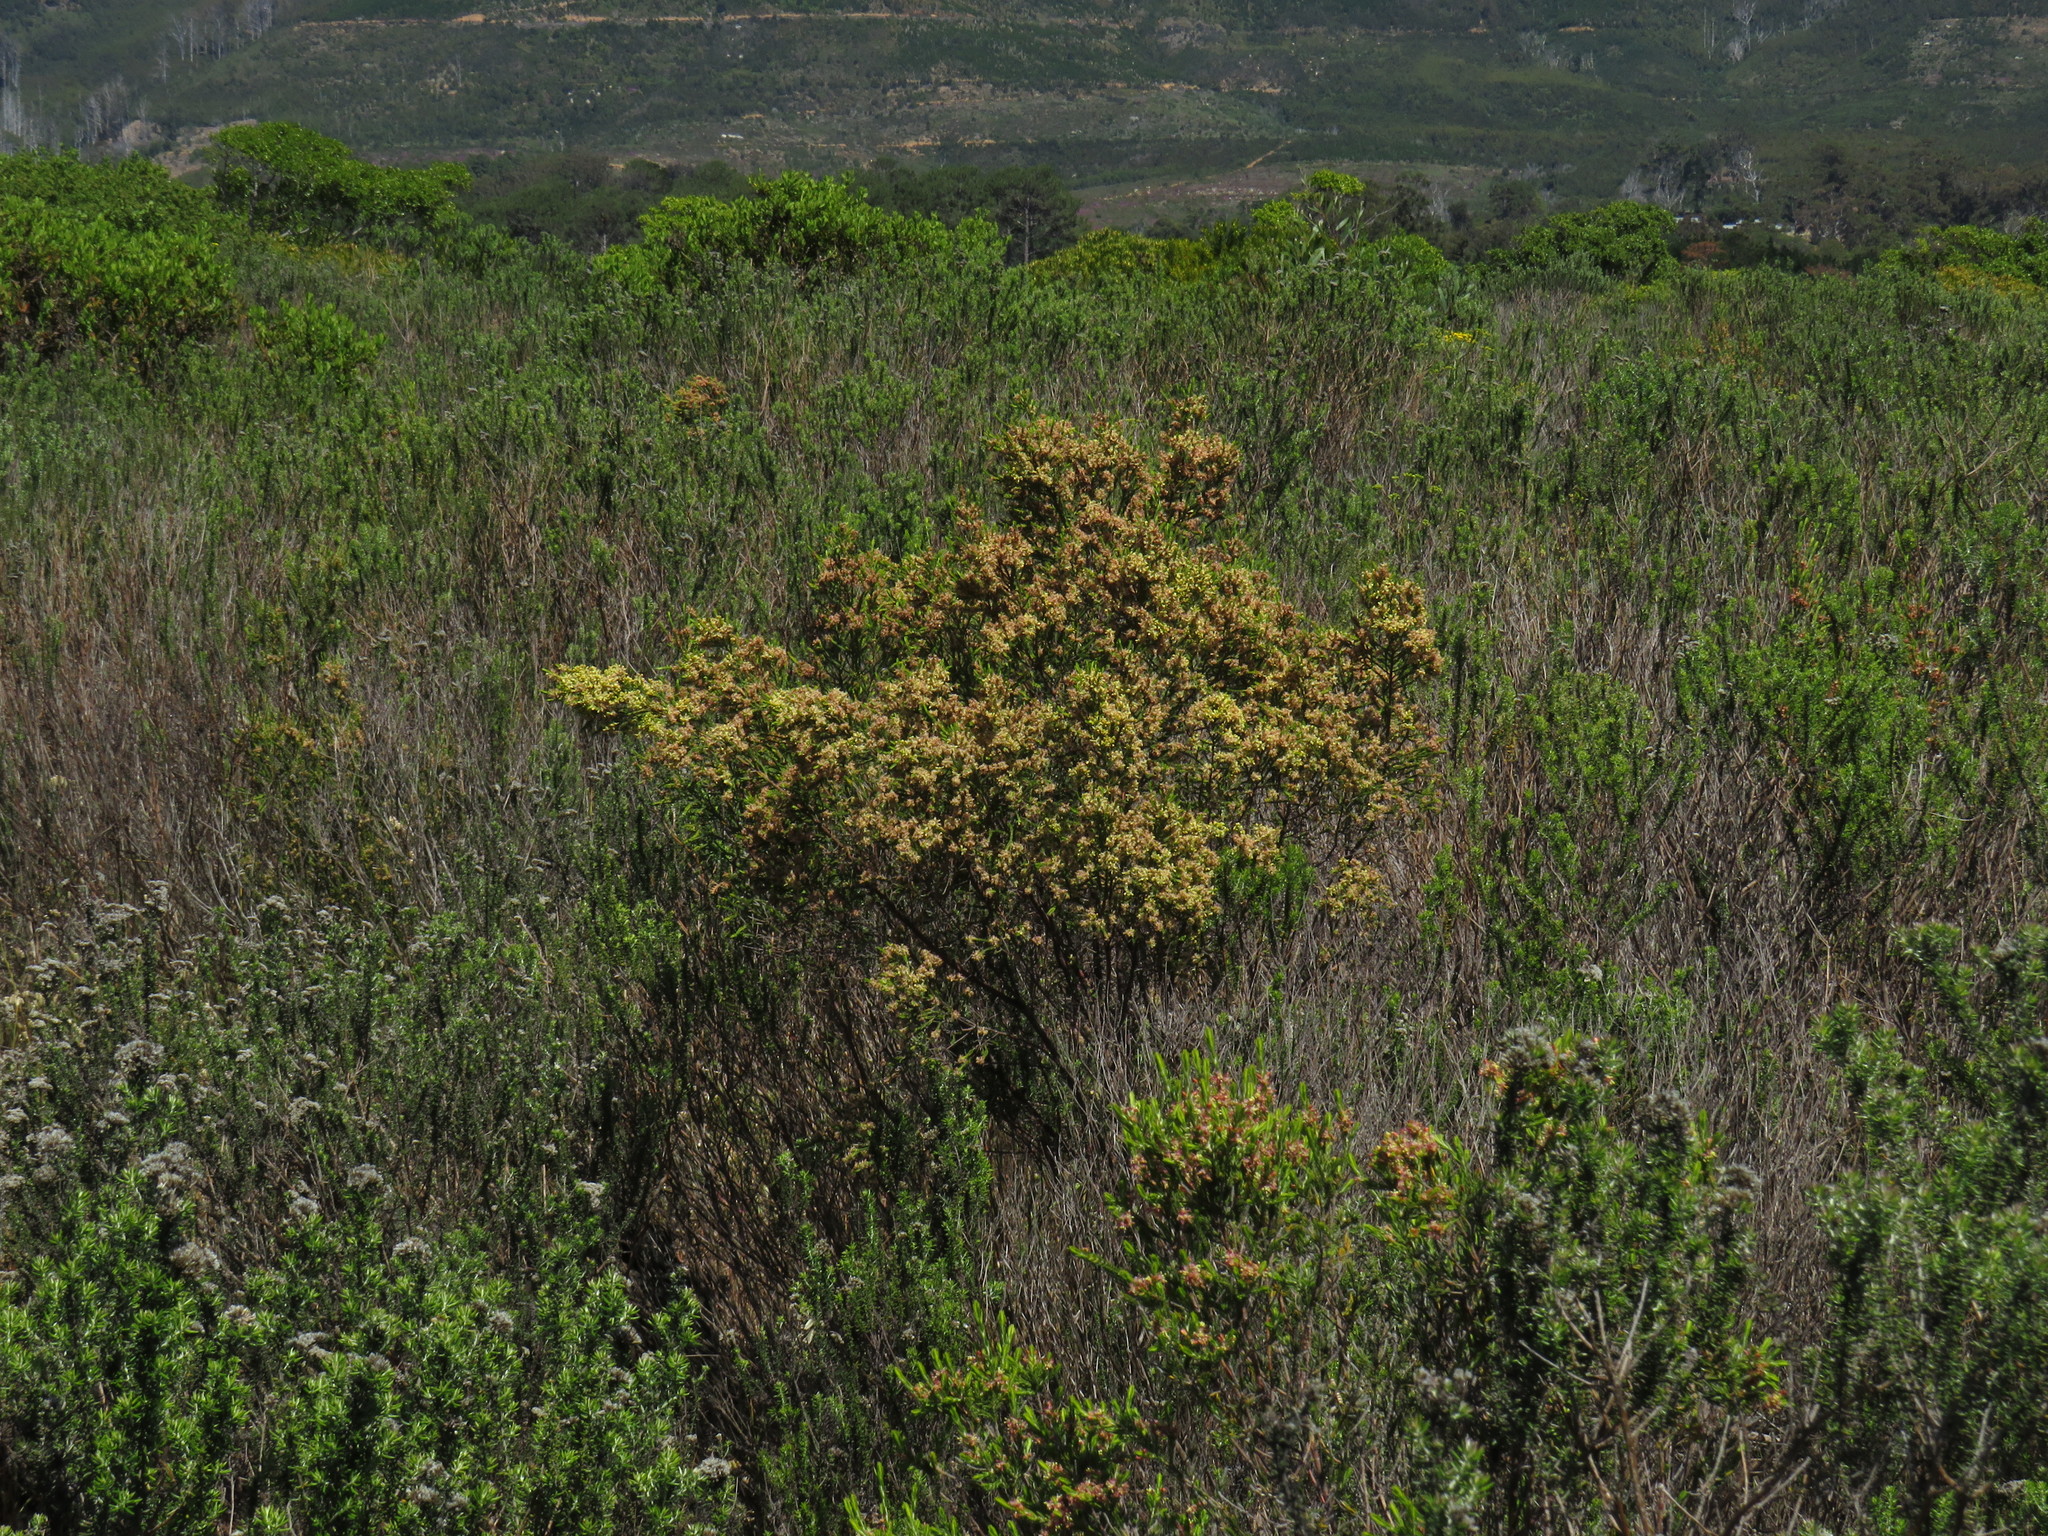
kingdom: Plantae
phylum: Tracheophyta
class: Magnoliopsida
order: Malvales
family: Thymelaeaceae
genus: Passerina
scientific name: Passerina corymbosa
